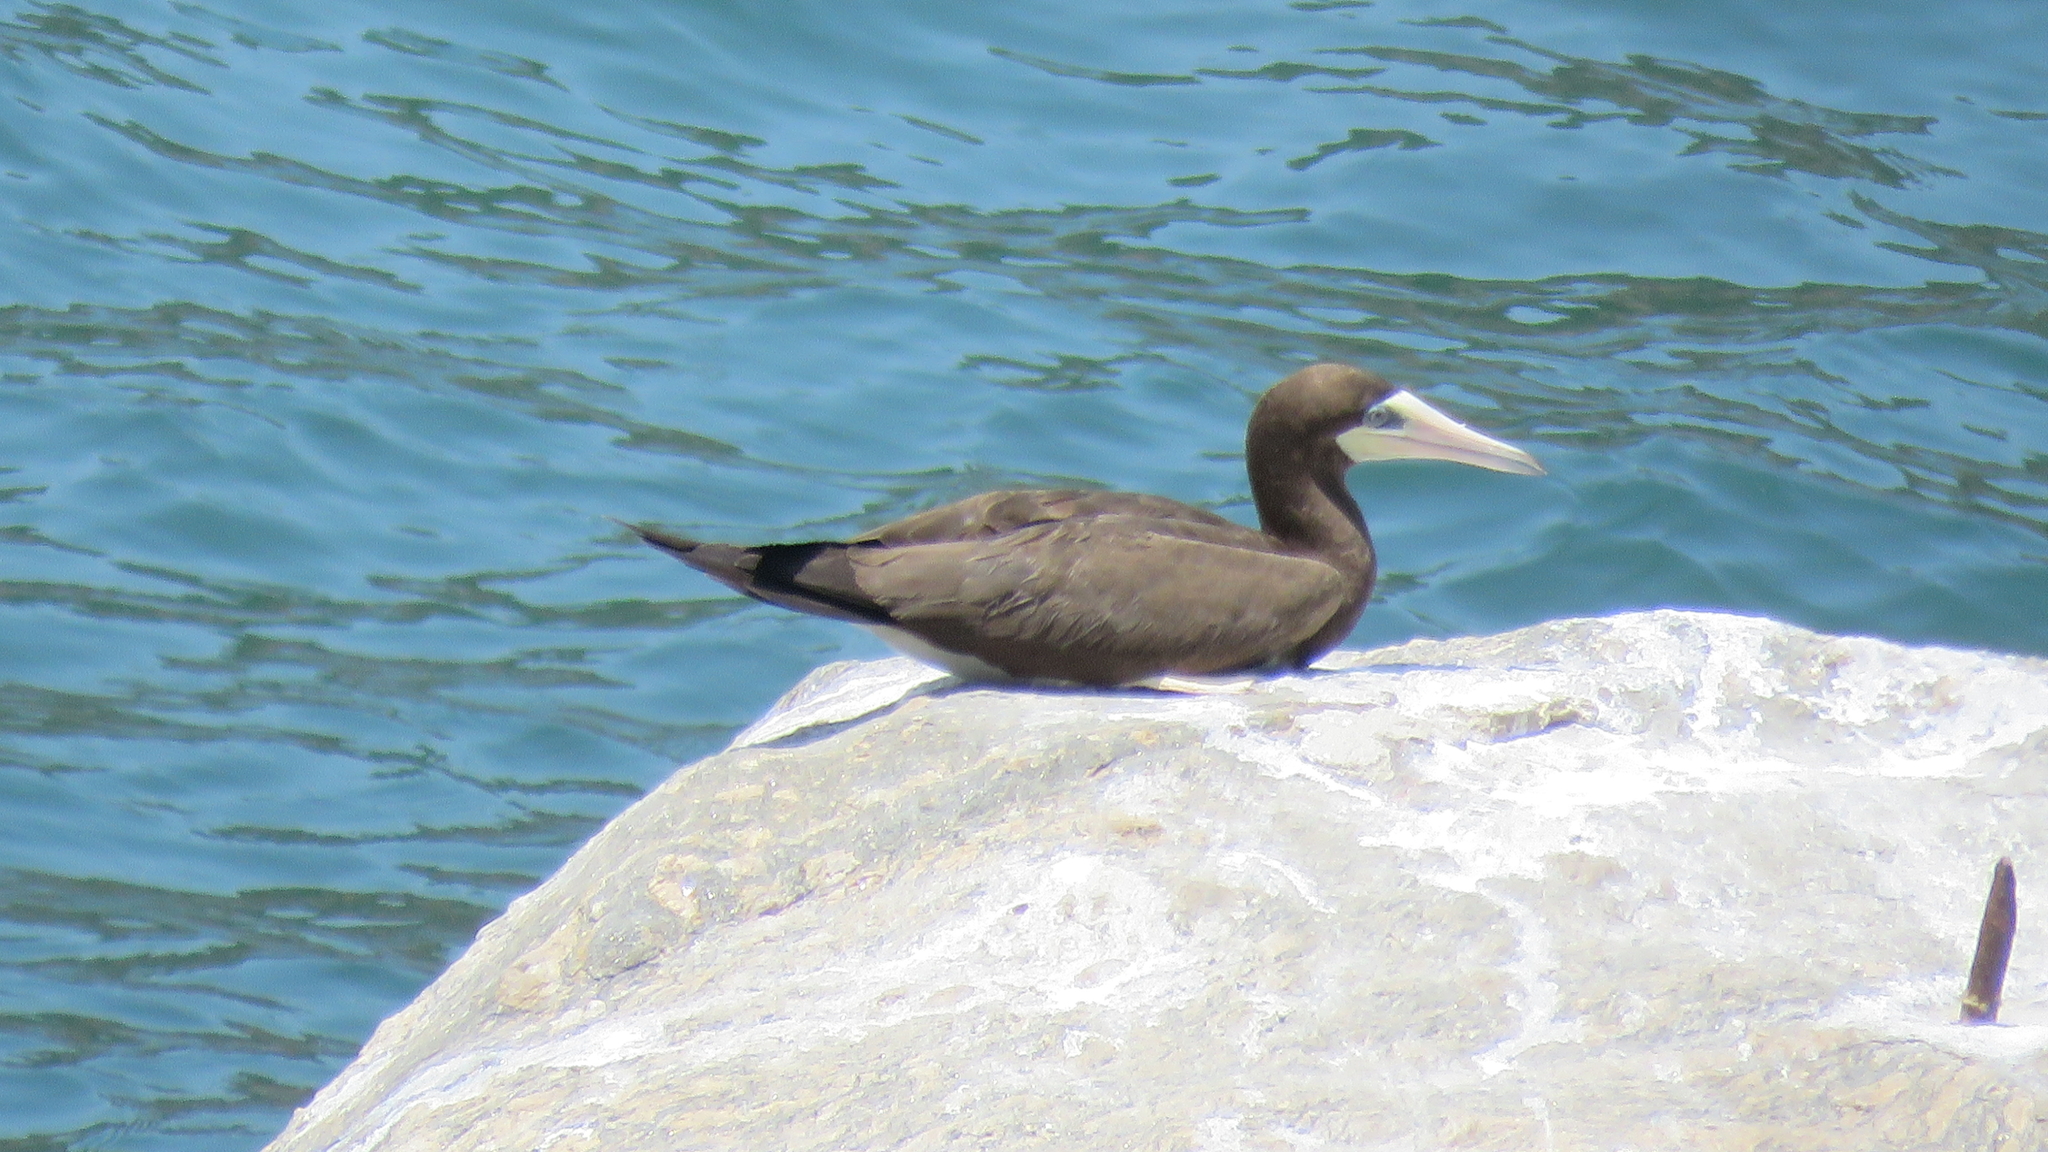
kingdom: Animalia
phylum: Chordata
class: Aves
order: Suliformes
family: Sulidae
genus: Sula
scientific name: Sula leucogaster
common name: Brown booby
